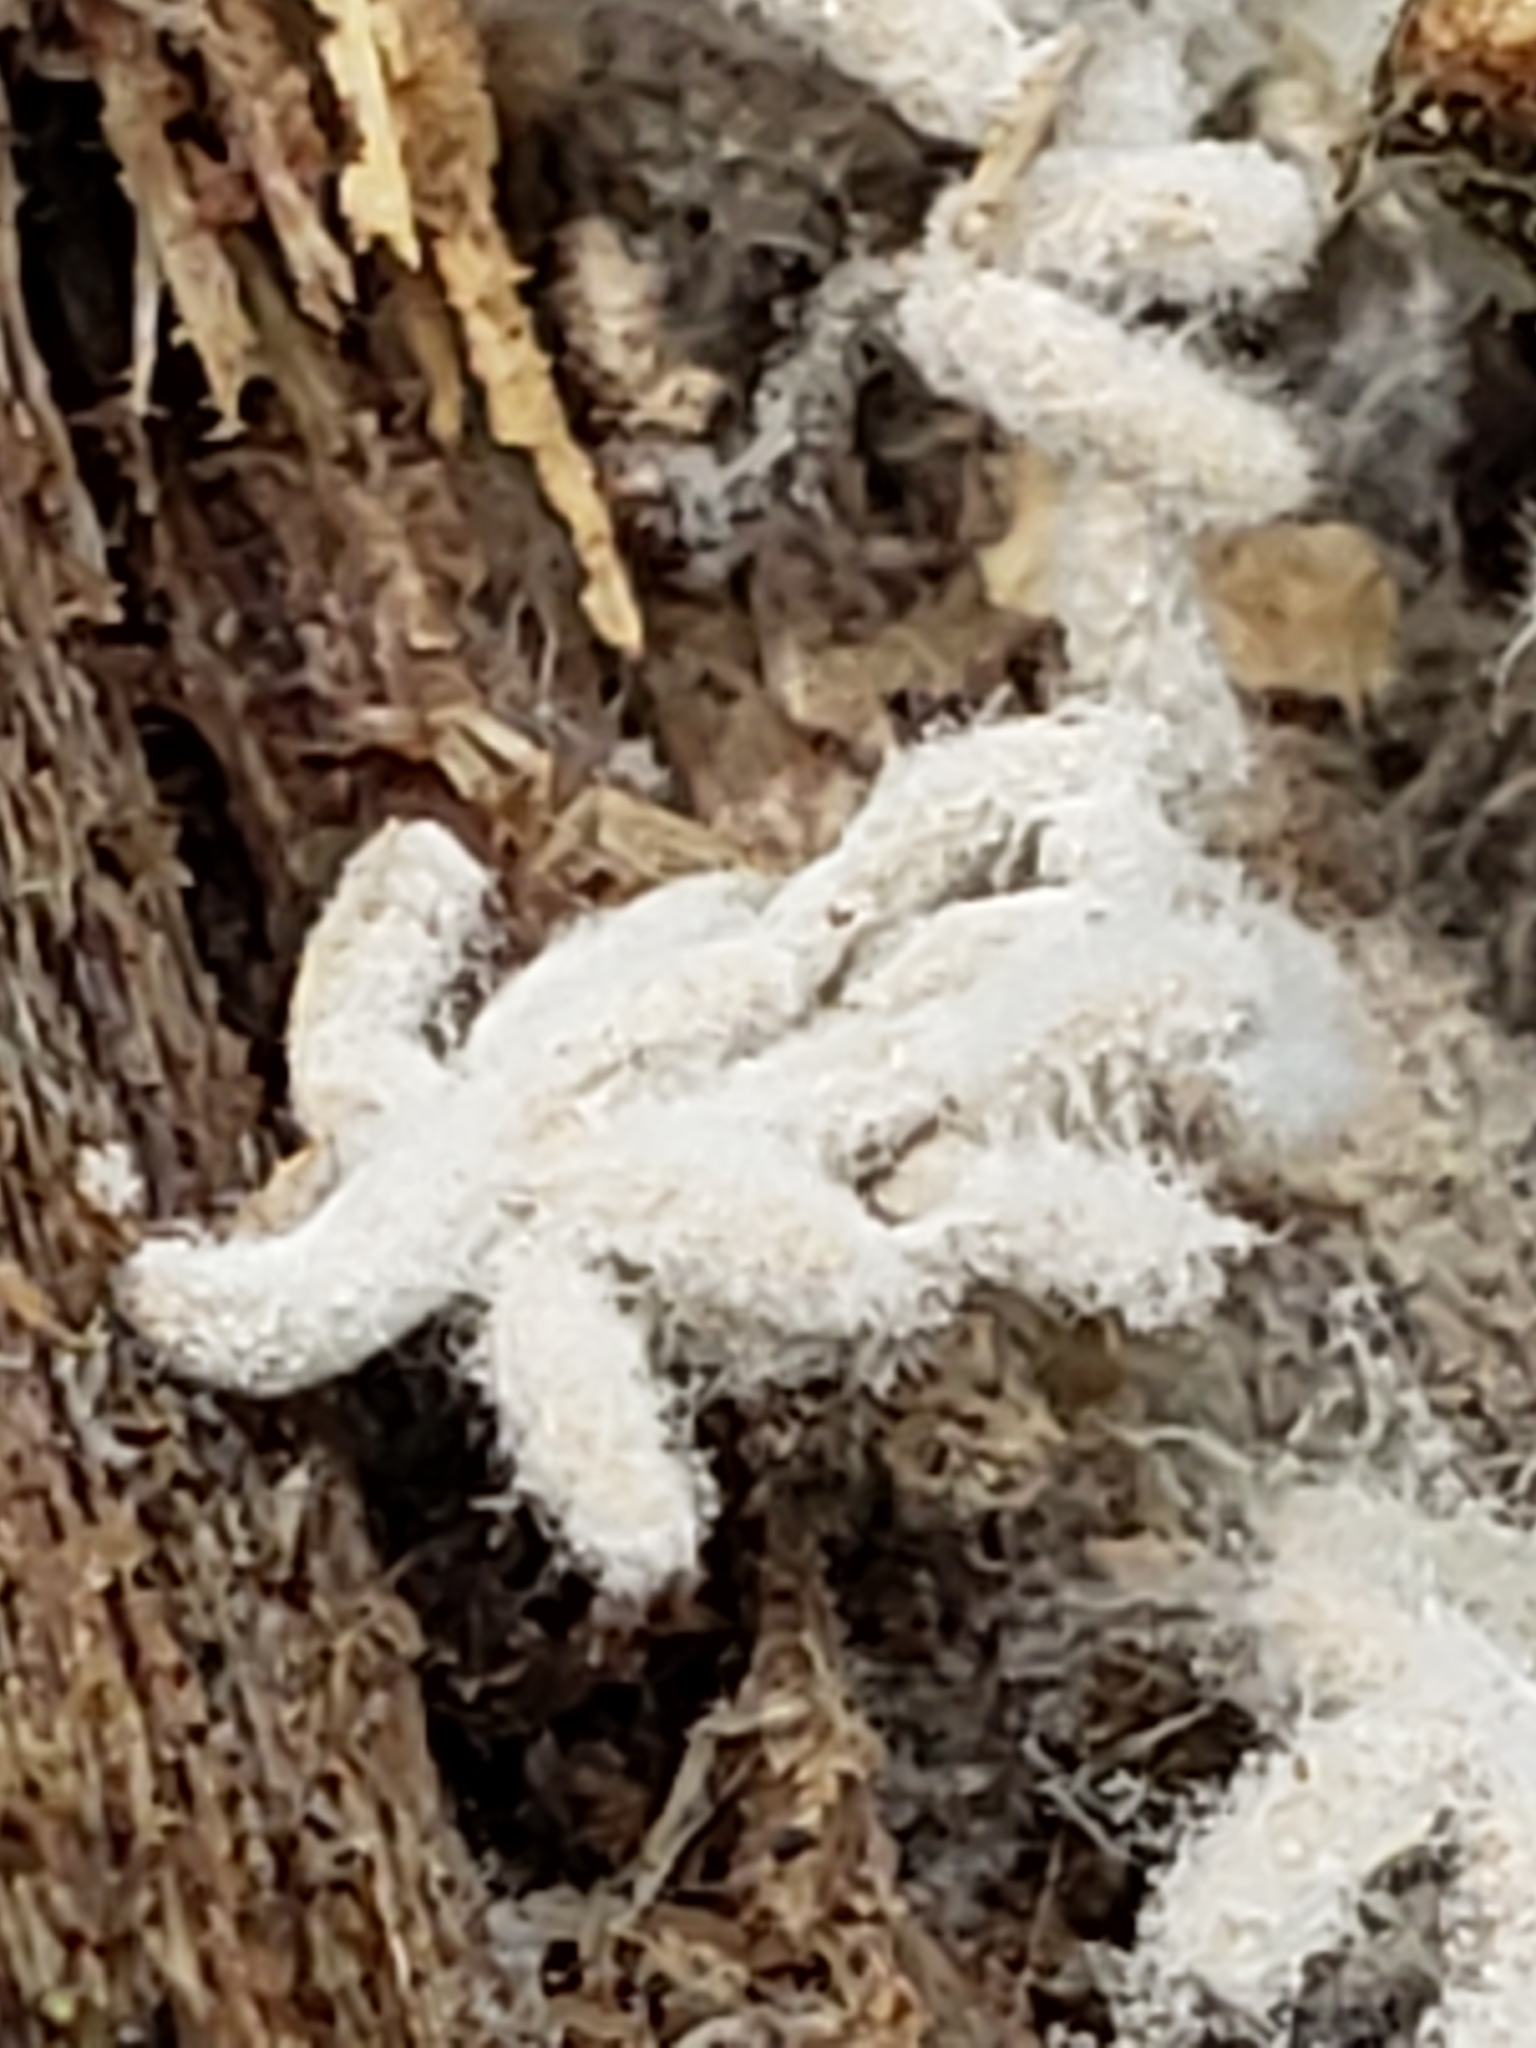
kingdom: Protozoa
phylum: Mycetozoa
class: Myxomycetes
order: Trichiales
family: Arcyriaceae
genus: Arcyria
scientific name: Arcyria cinerea
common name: White carnival candy slime mold
